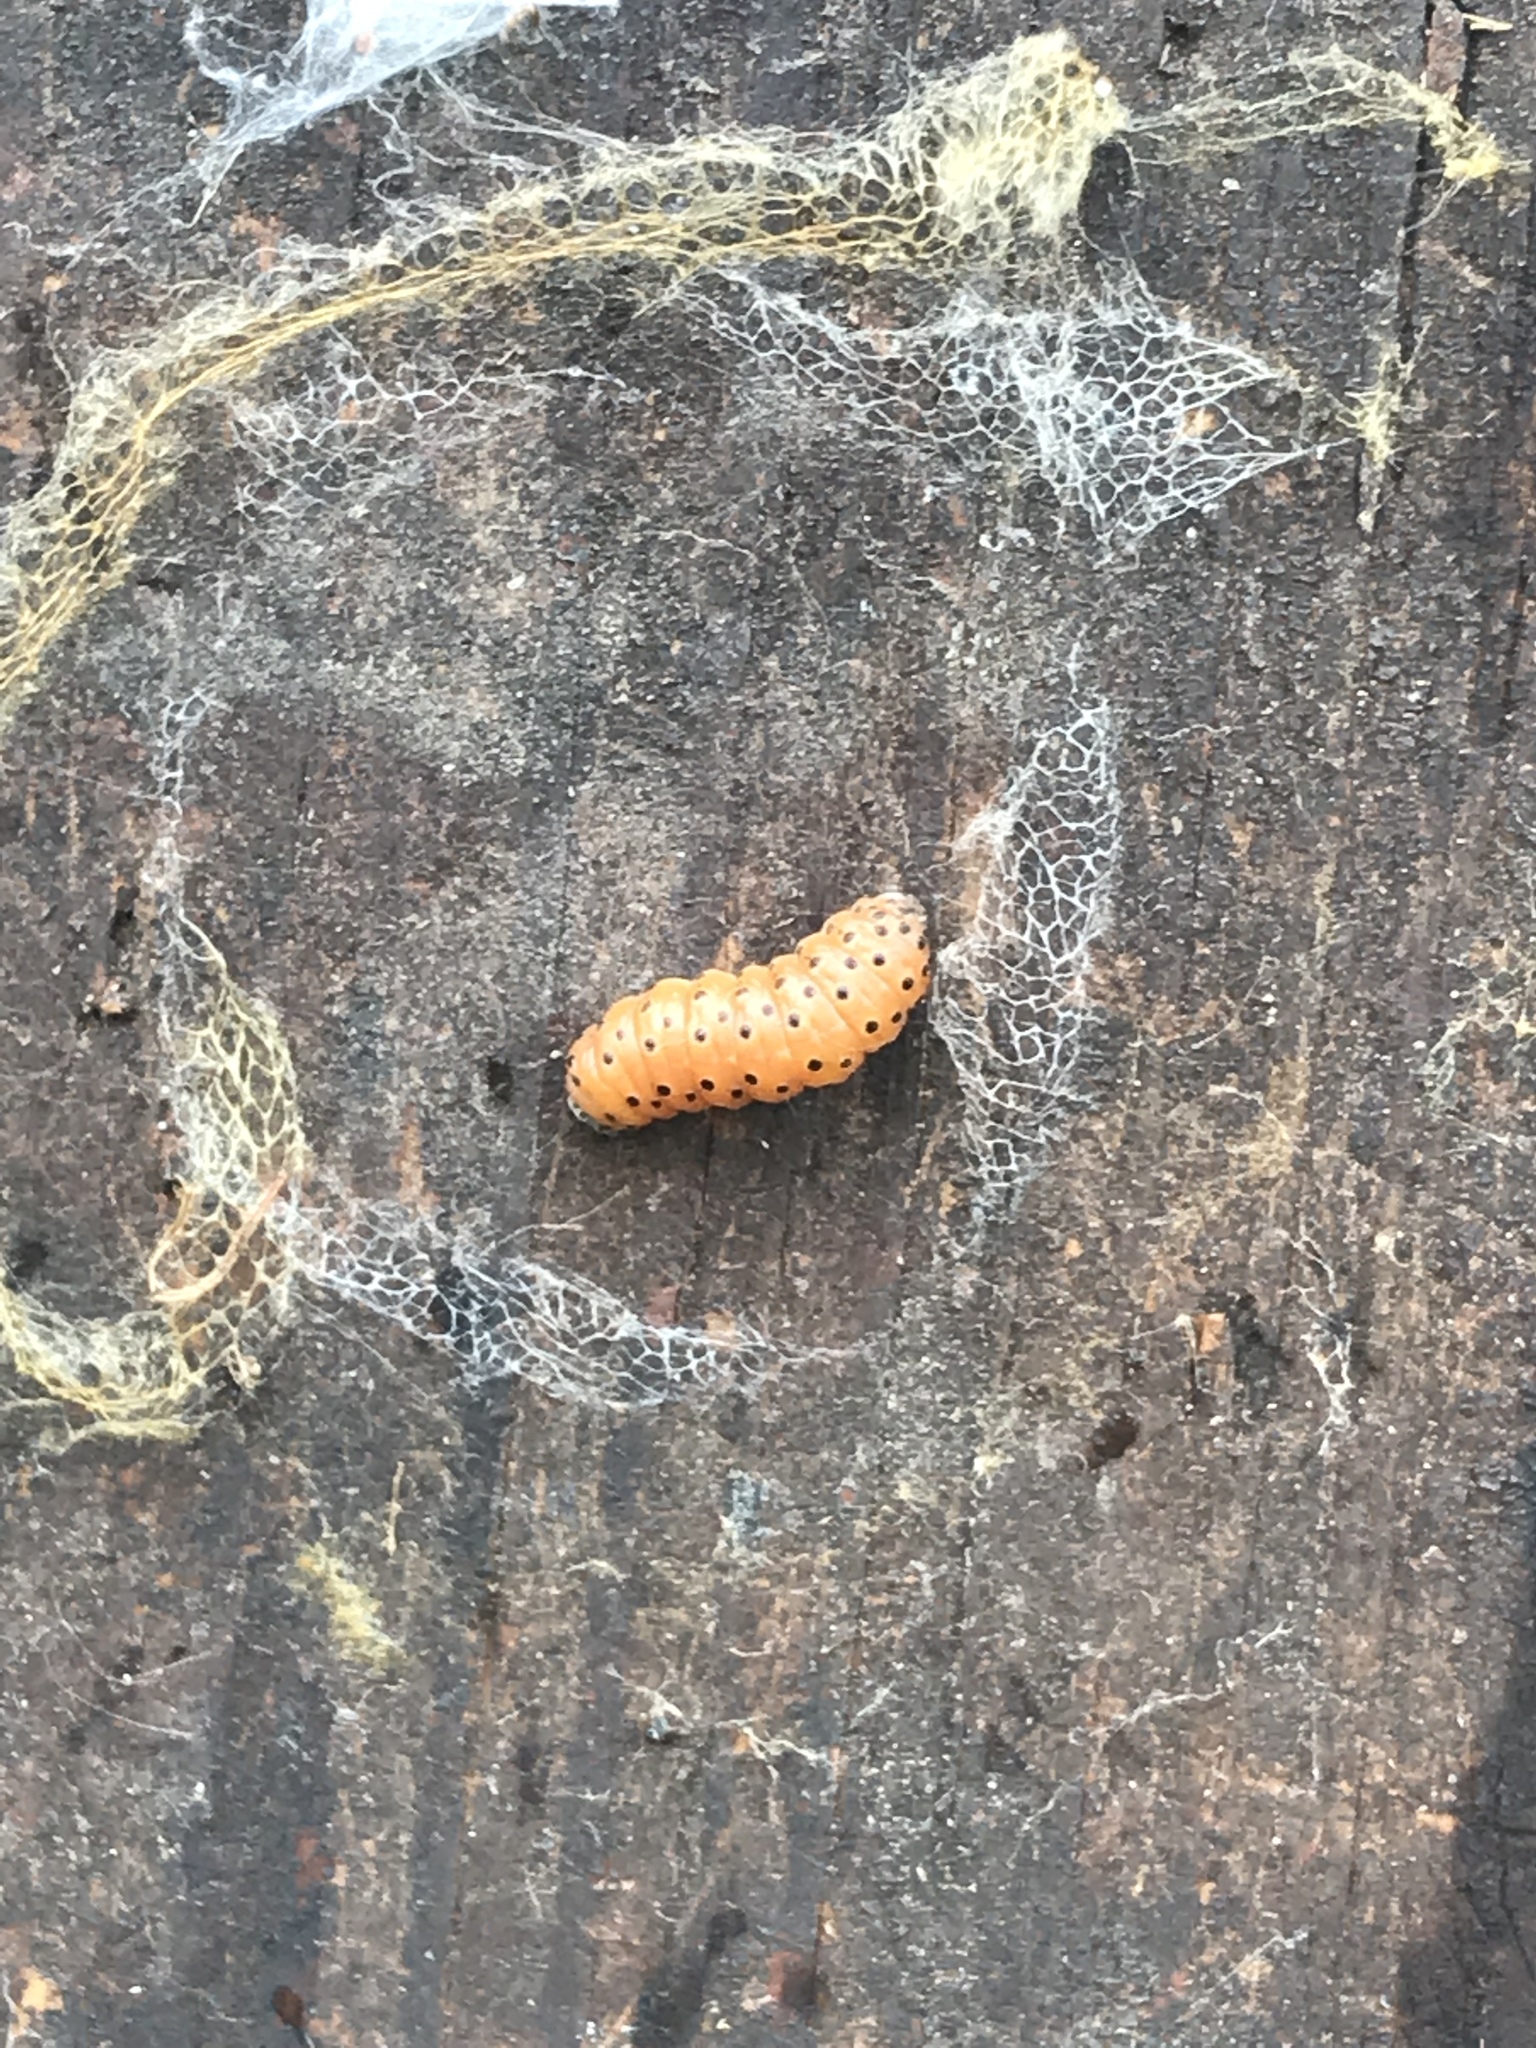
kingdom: Animalia
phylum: Arthropoda
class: Insecta
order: Lepidoptera
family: Crambidae
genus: Saucrobotys
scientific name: Saucrobotys futilalis
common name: Dogbane saucrobotys moth
